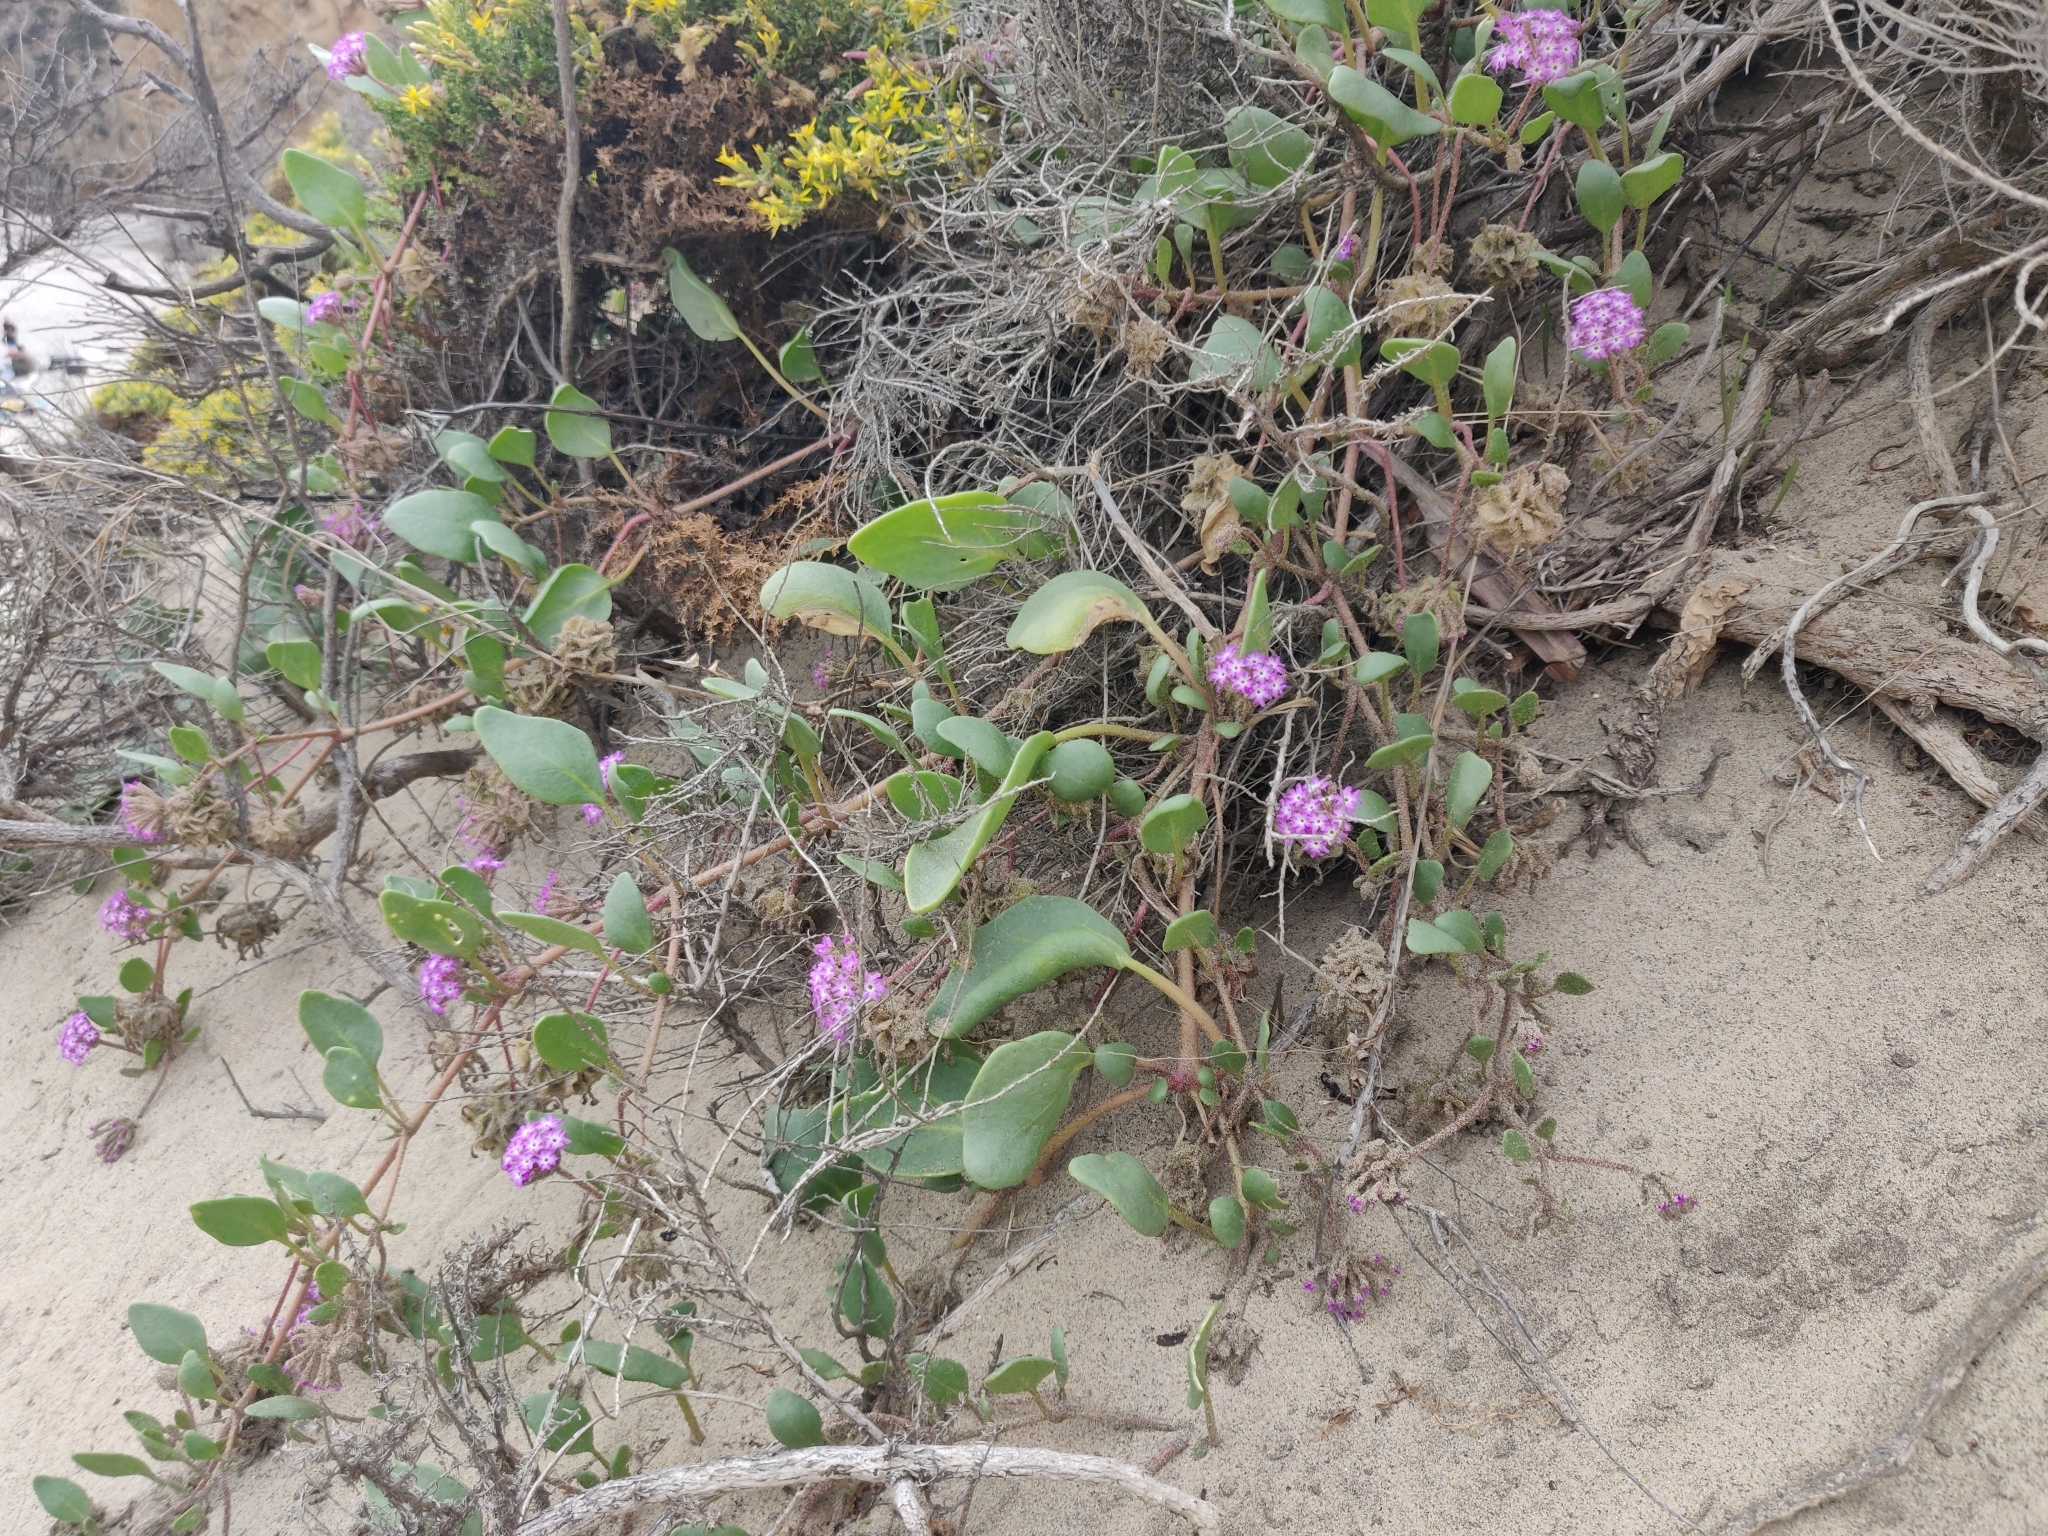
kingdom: Plantae
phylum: Tracheophyta
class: Magnoliopsida
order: Caryophyllales
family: Nyctaginaceae
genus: Abronia
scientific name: Abronia umbellata
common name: Sand-verbena
